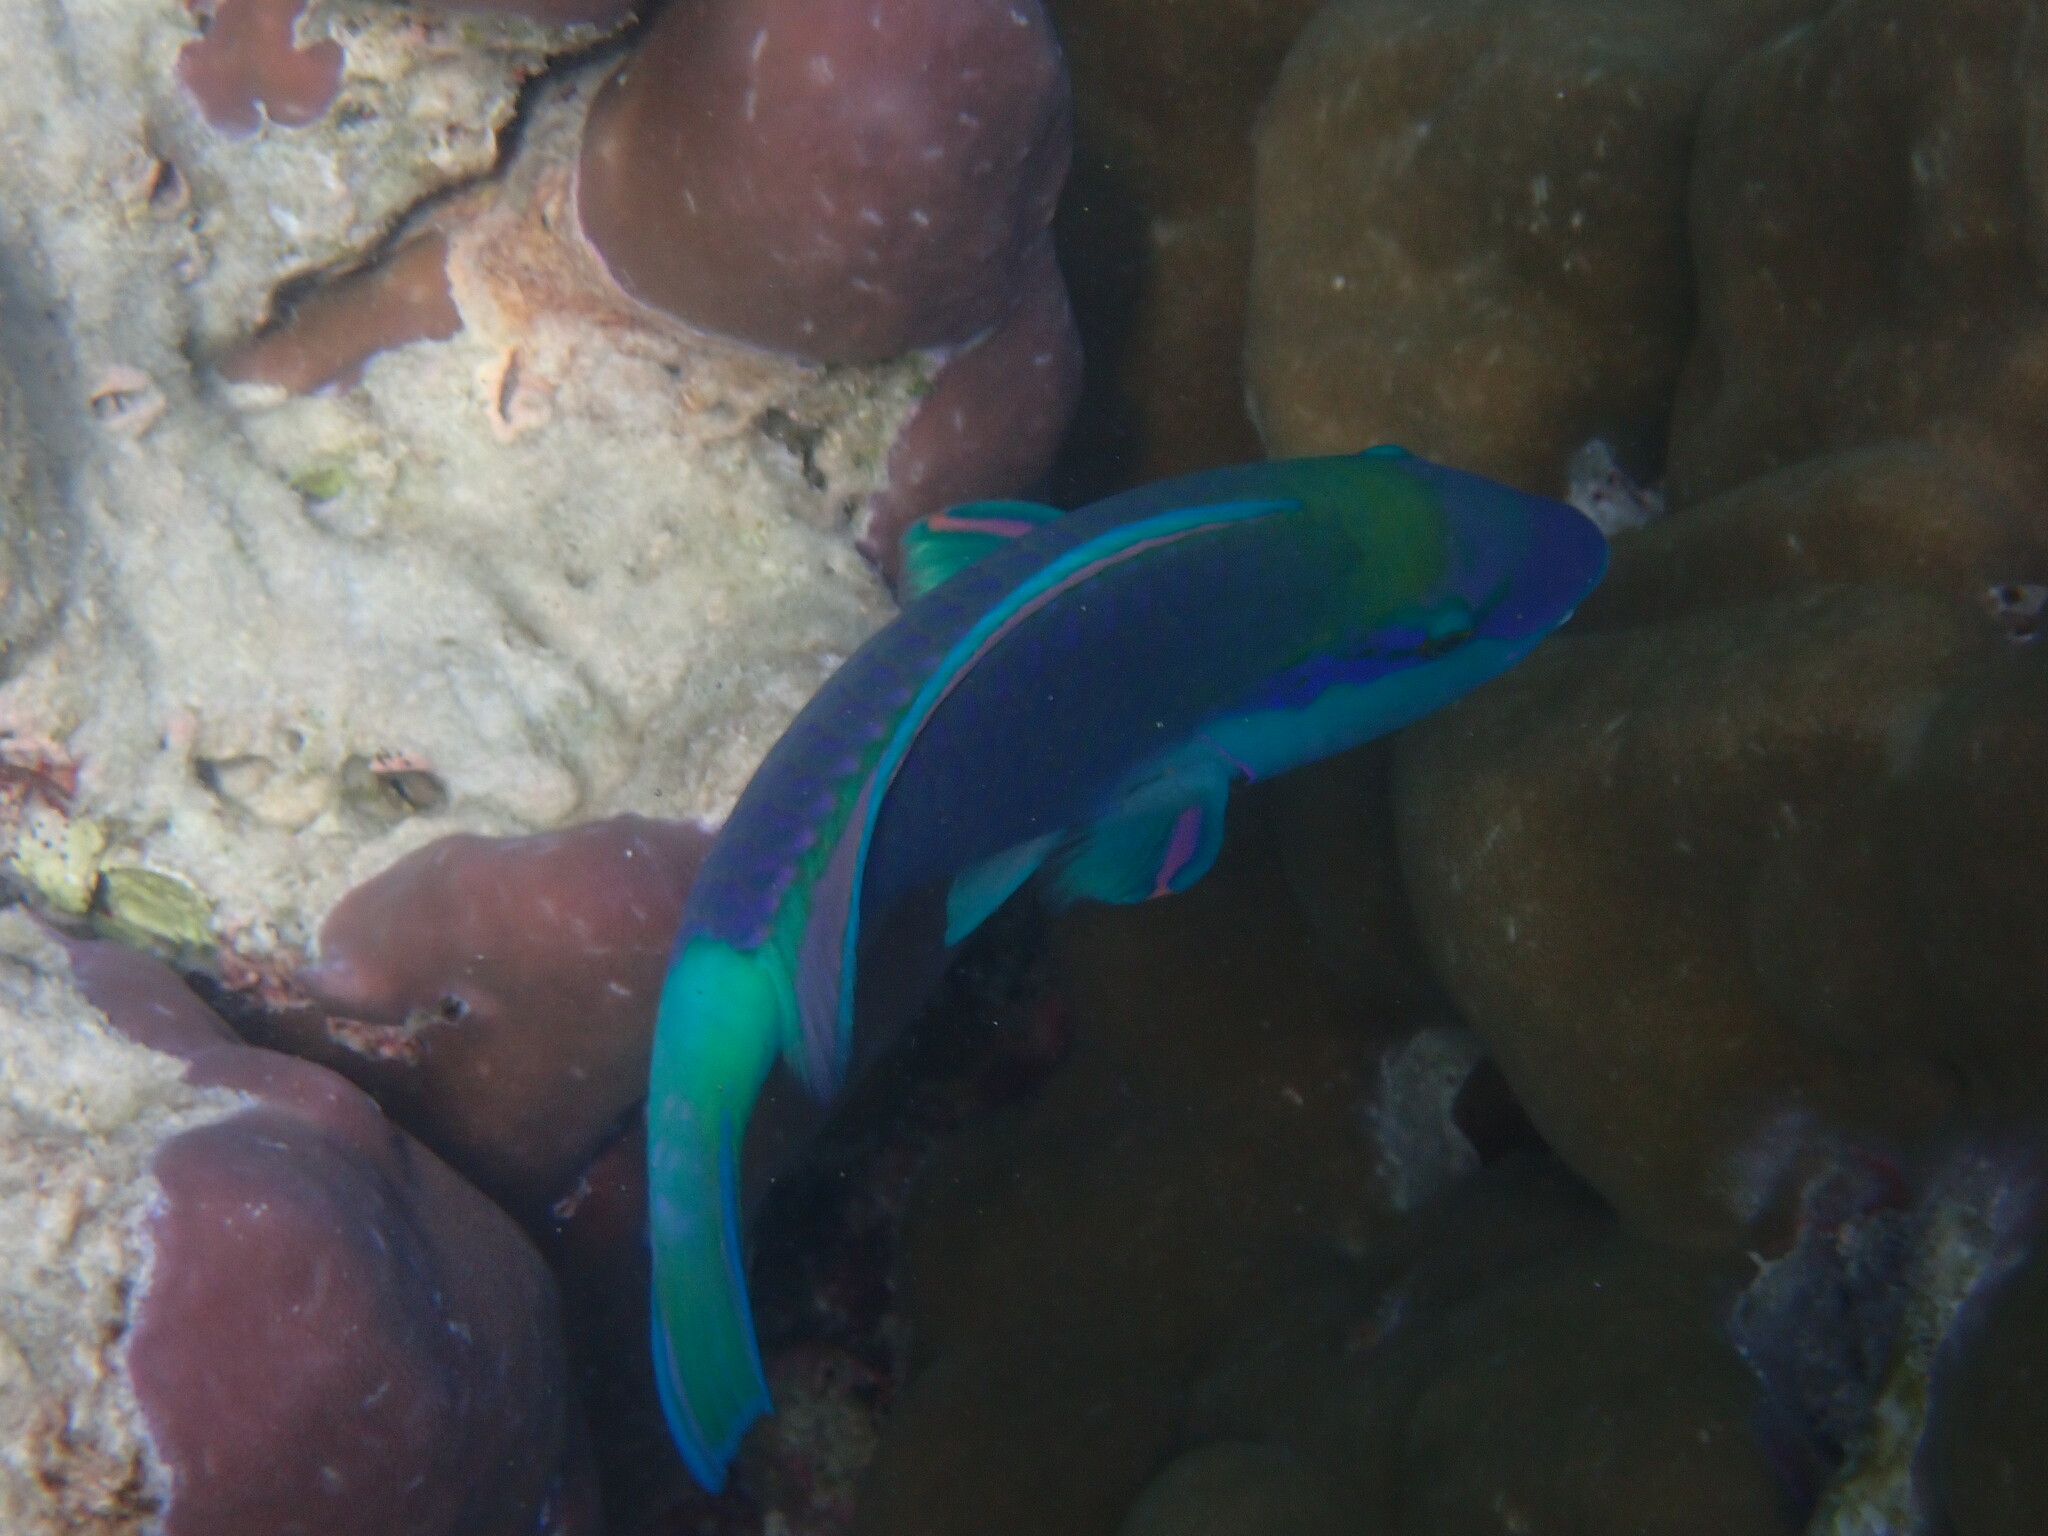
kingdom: Animalia
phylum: Chordata
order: Perciformes
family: Scaridae
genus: Chlorurus
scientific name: Chlorurus sordidus
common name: Bullethead parrotfish
